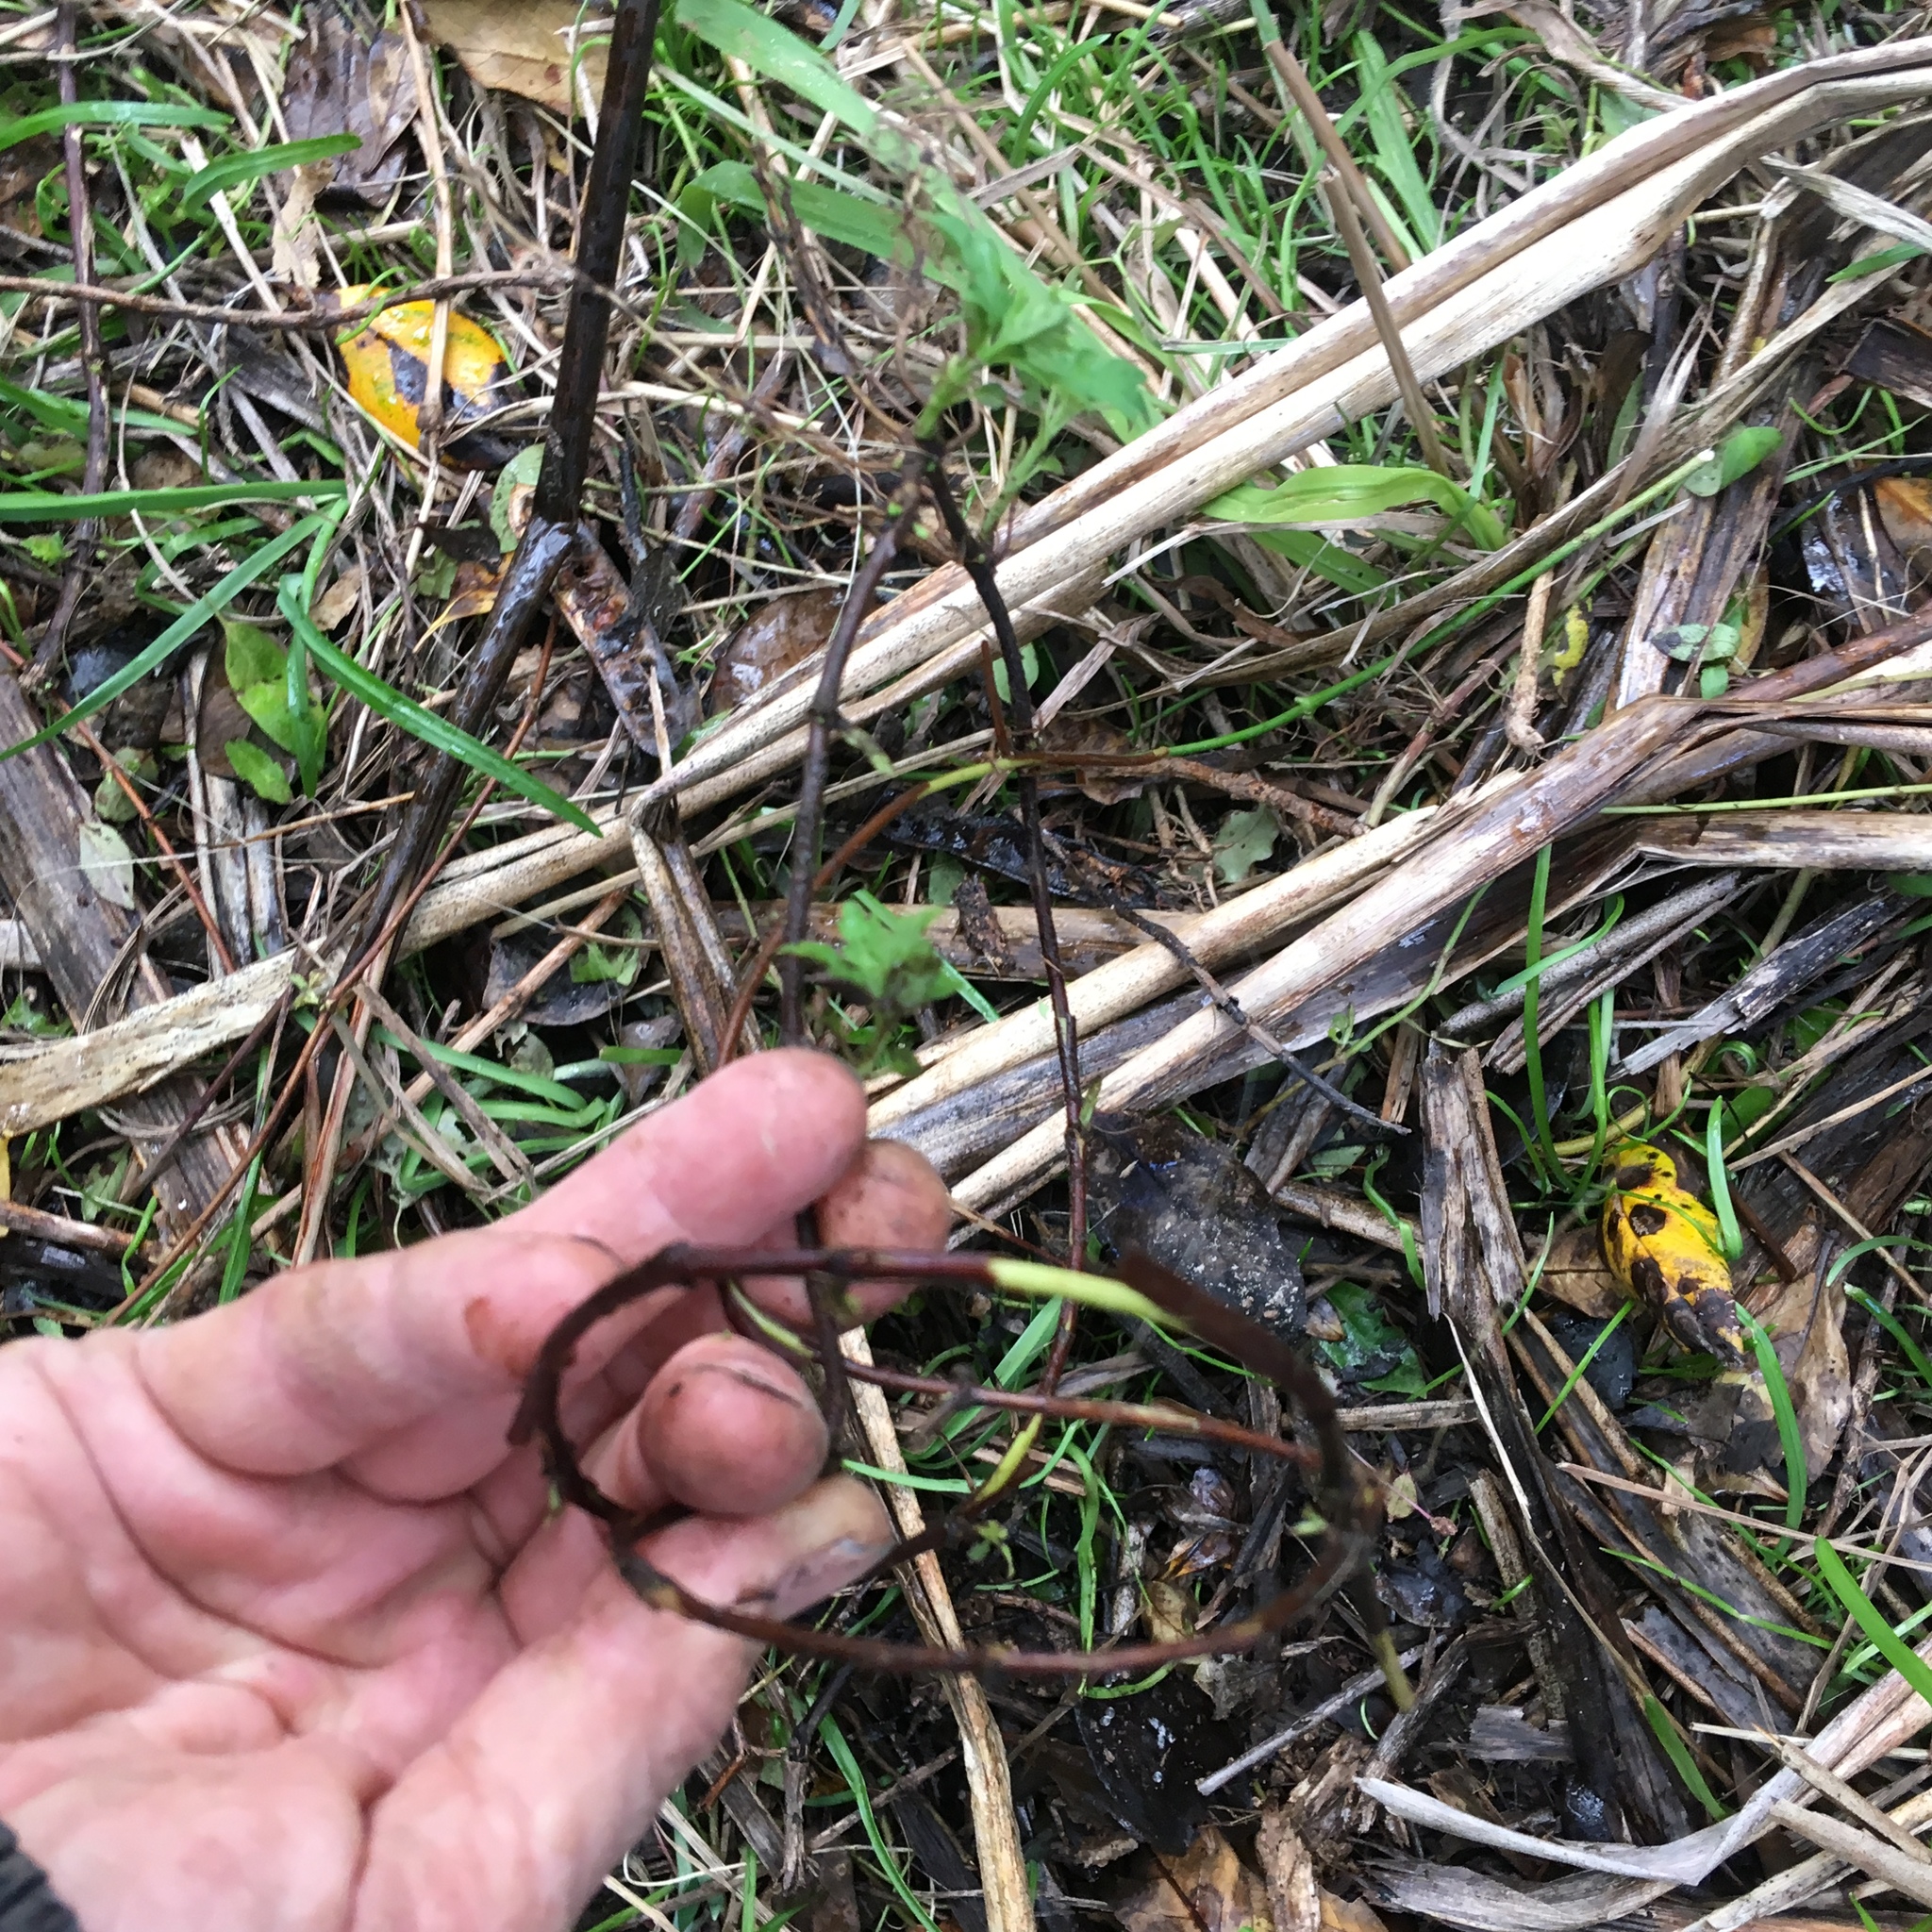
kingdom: Plantae
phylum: Tracheophyta
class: Magnoliopsida
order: Dipsacales
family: Caprifoliaceae
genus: Lonicera
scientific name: Lonicera japonica
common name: Japanese honeysuckle
